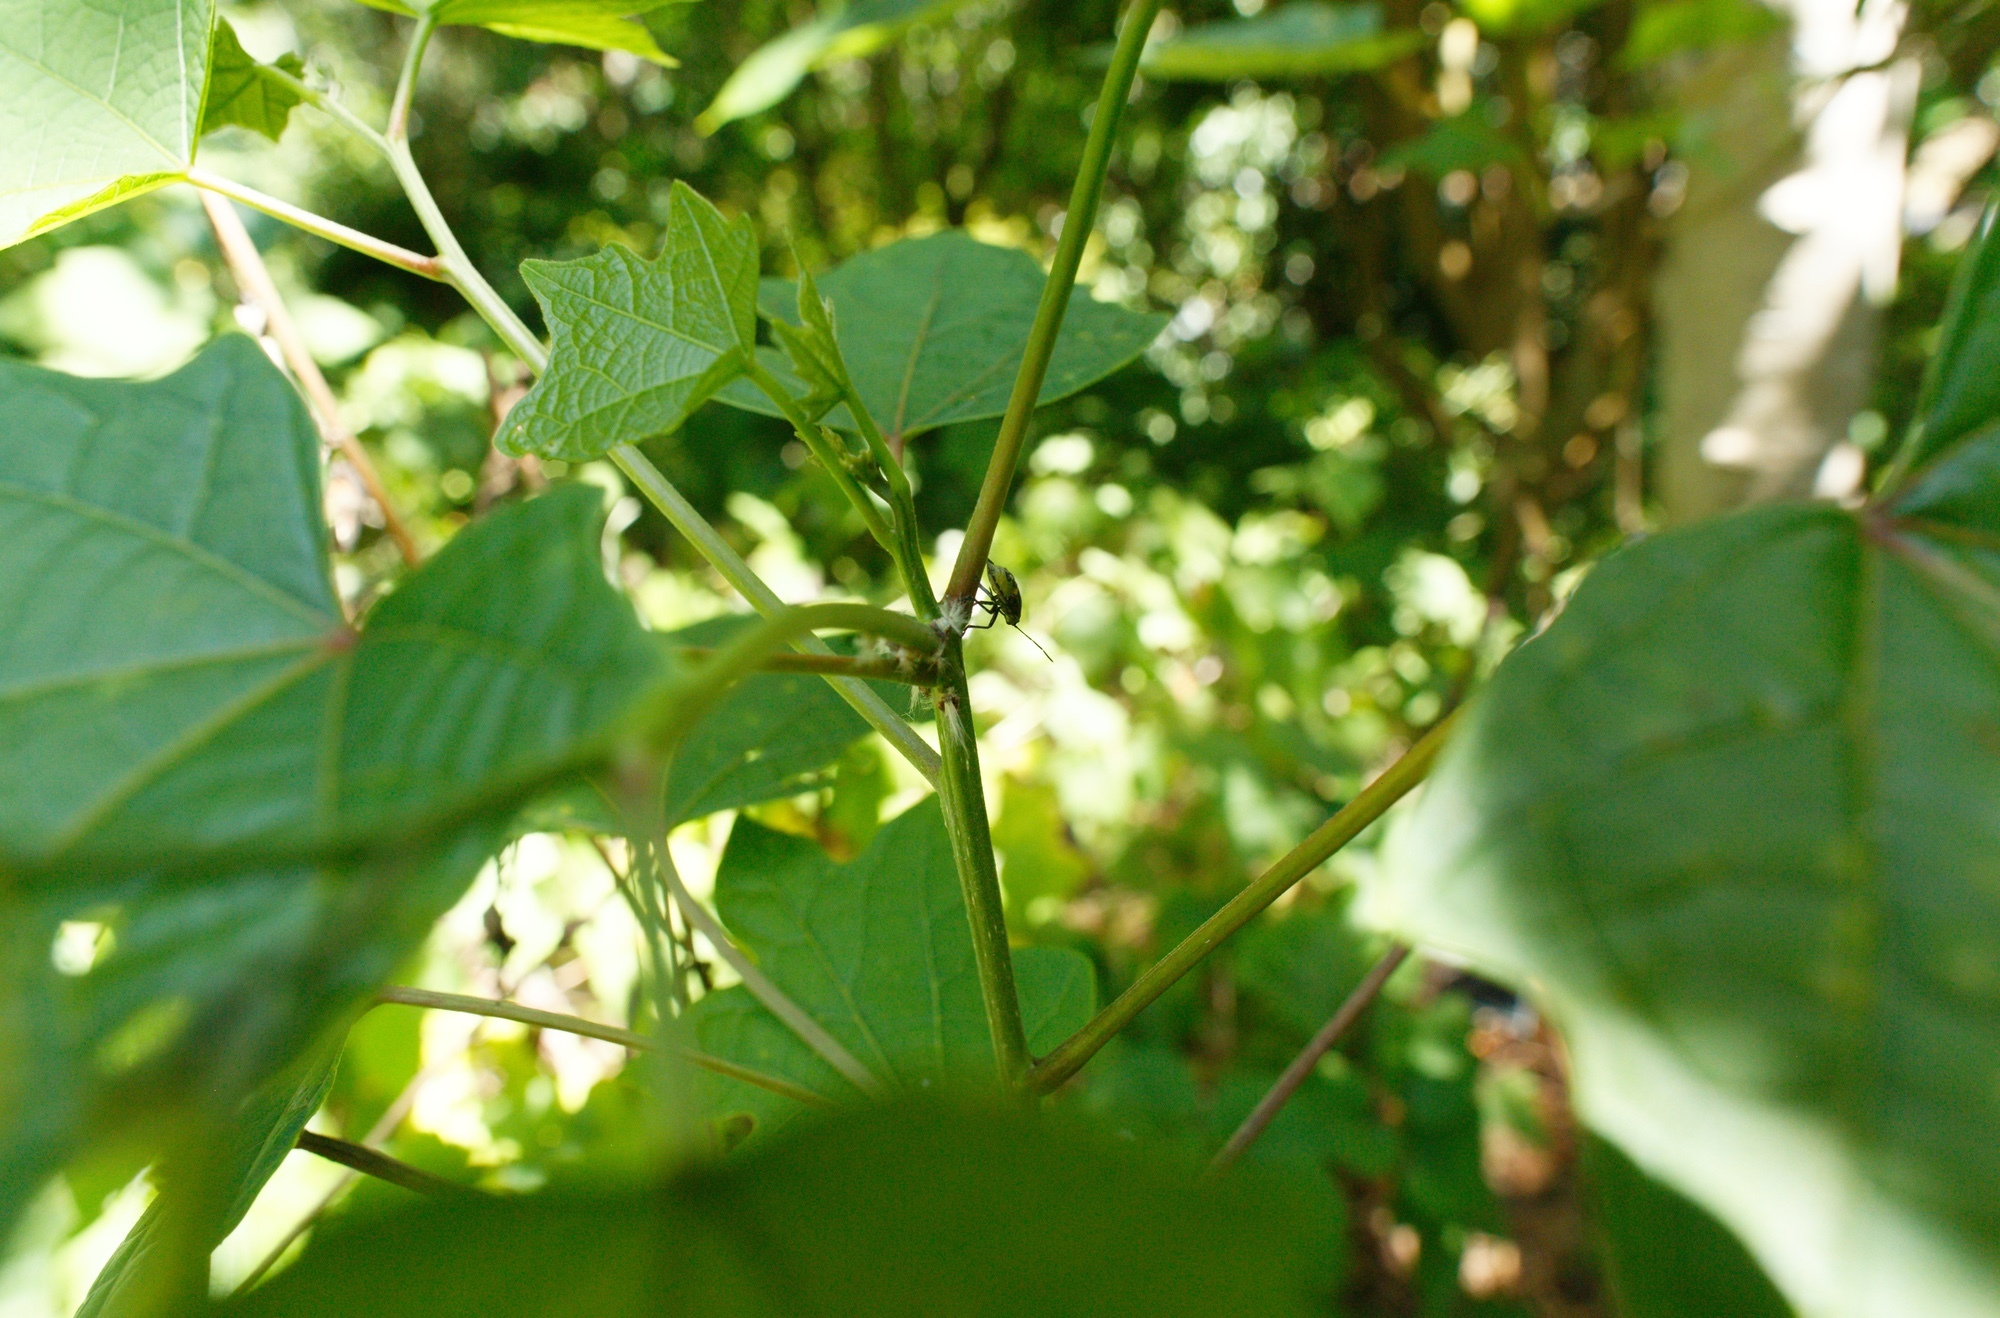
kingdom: Animalia
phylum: Arthropoda
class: Insecta
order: Hemiptera
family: Pentatomidae
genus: Glaucias
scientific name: Glaucias amyota
